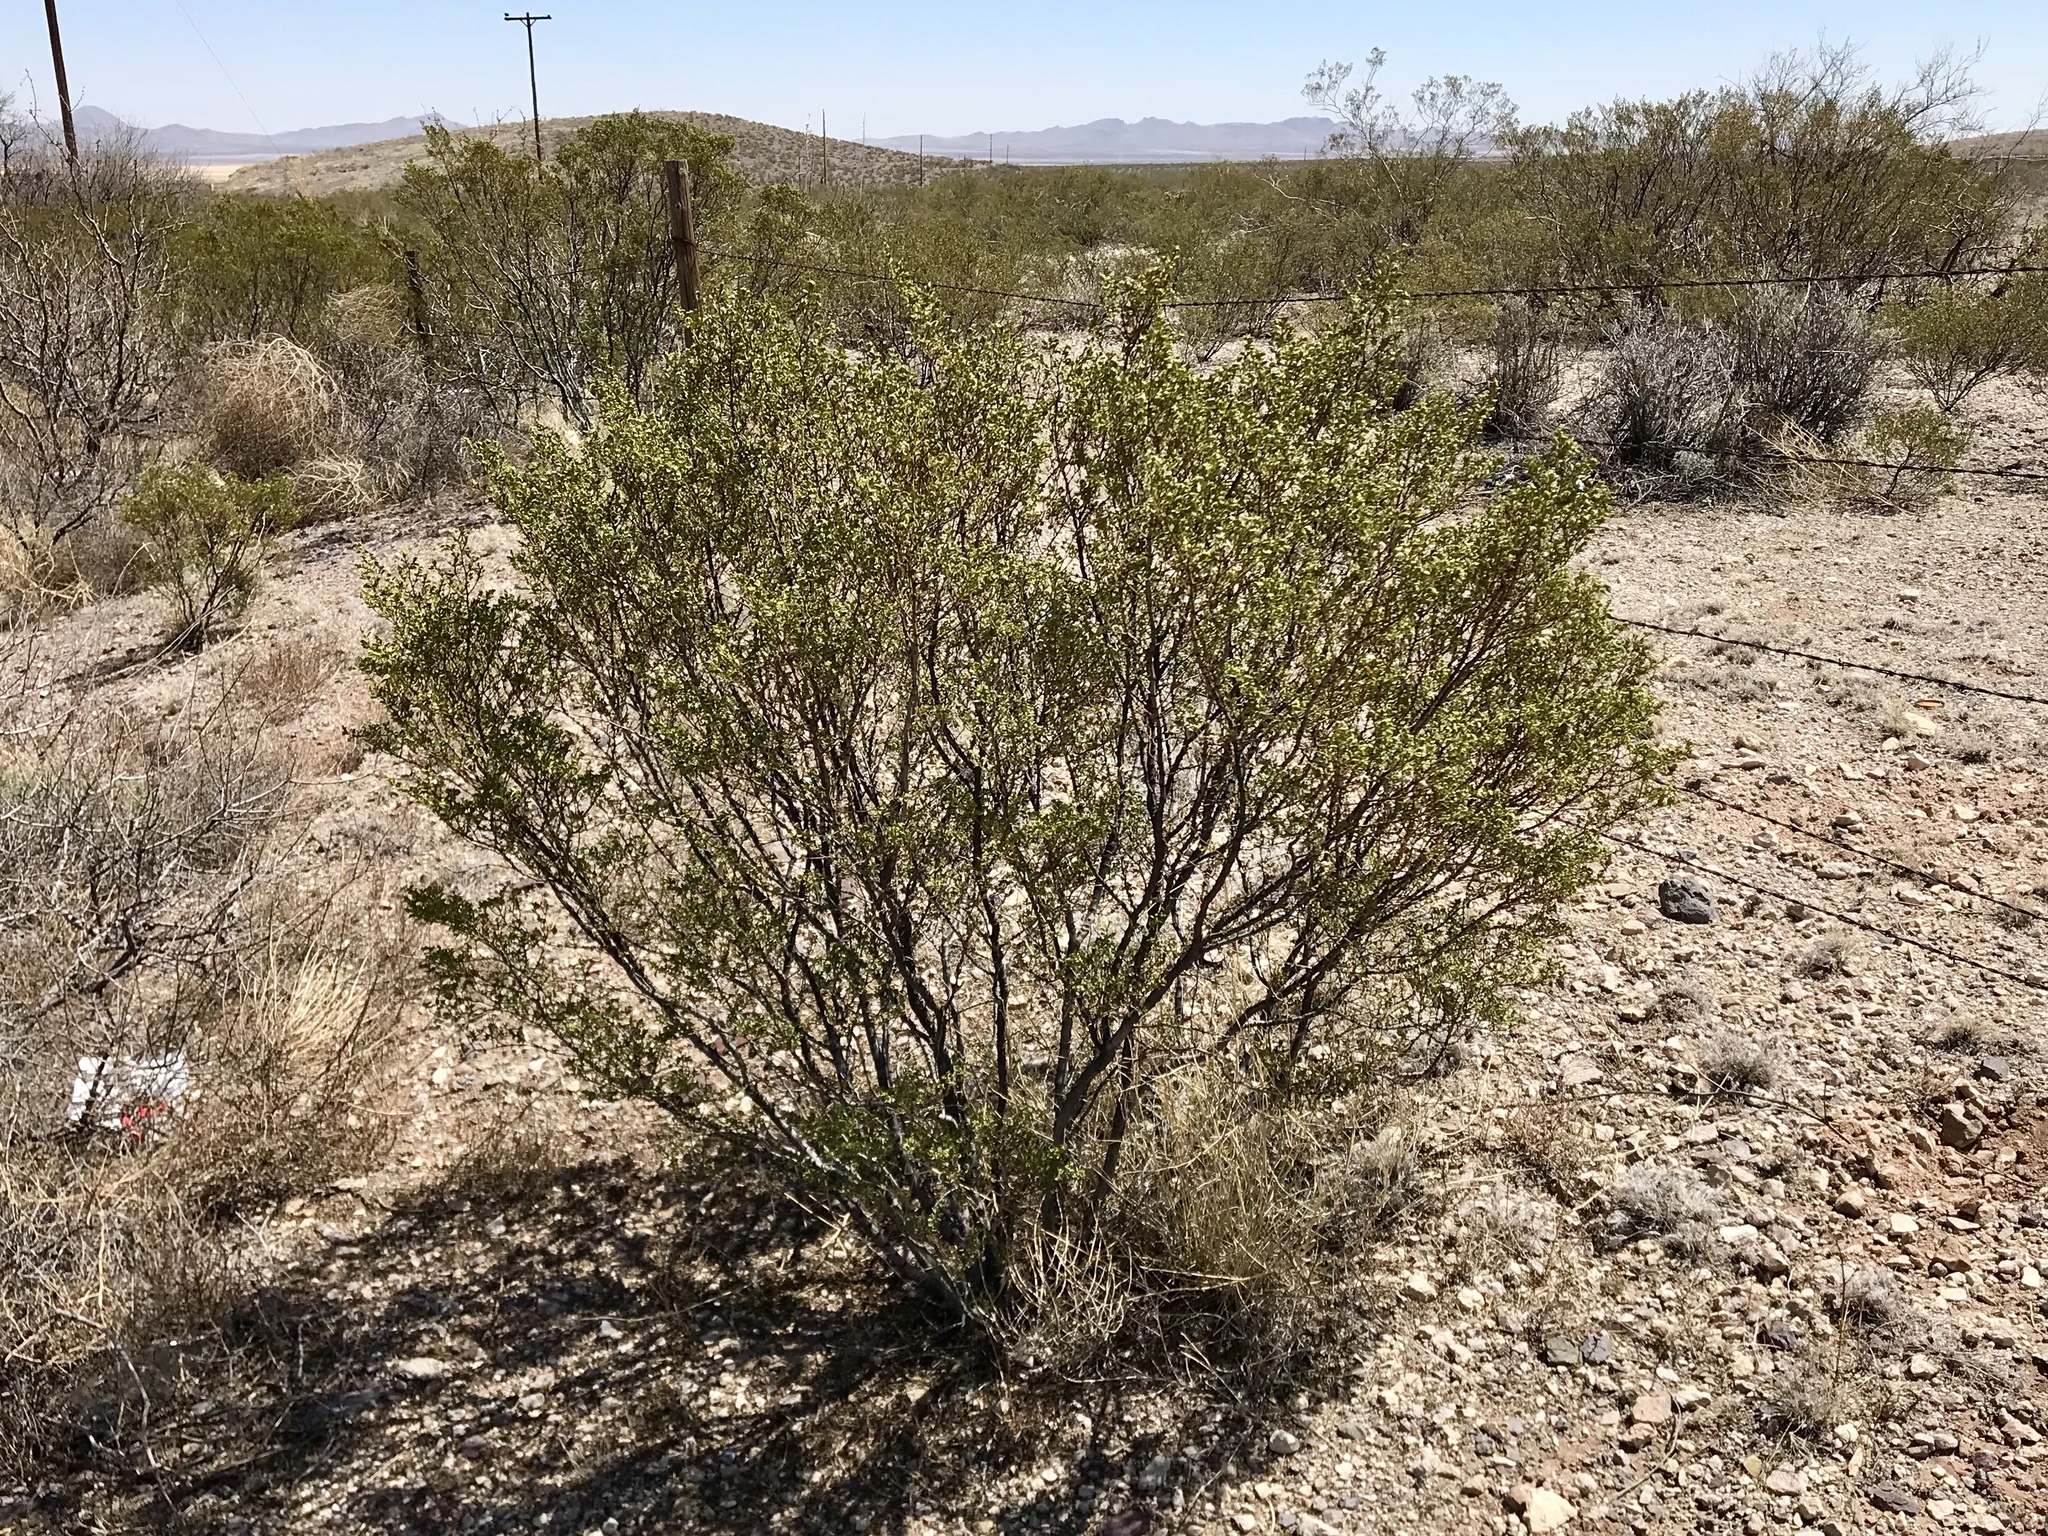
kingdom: Plantae
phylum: Tracheophyta
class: Magnoliopsida
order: Zygophyllales
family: Zygophyllaceae
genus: Larrea
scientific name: Larrea tridentata
